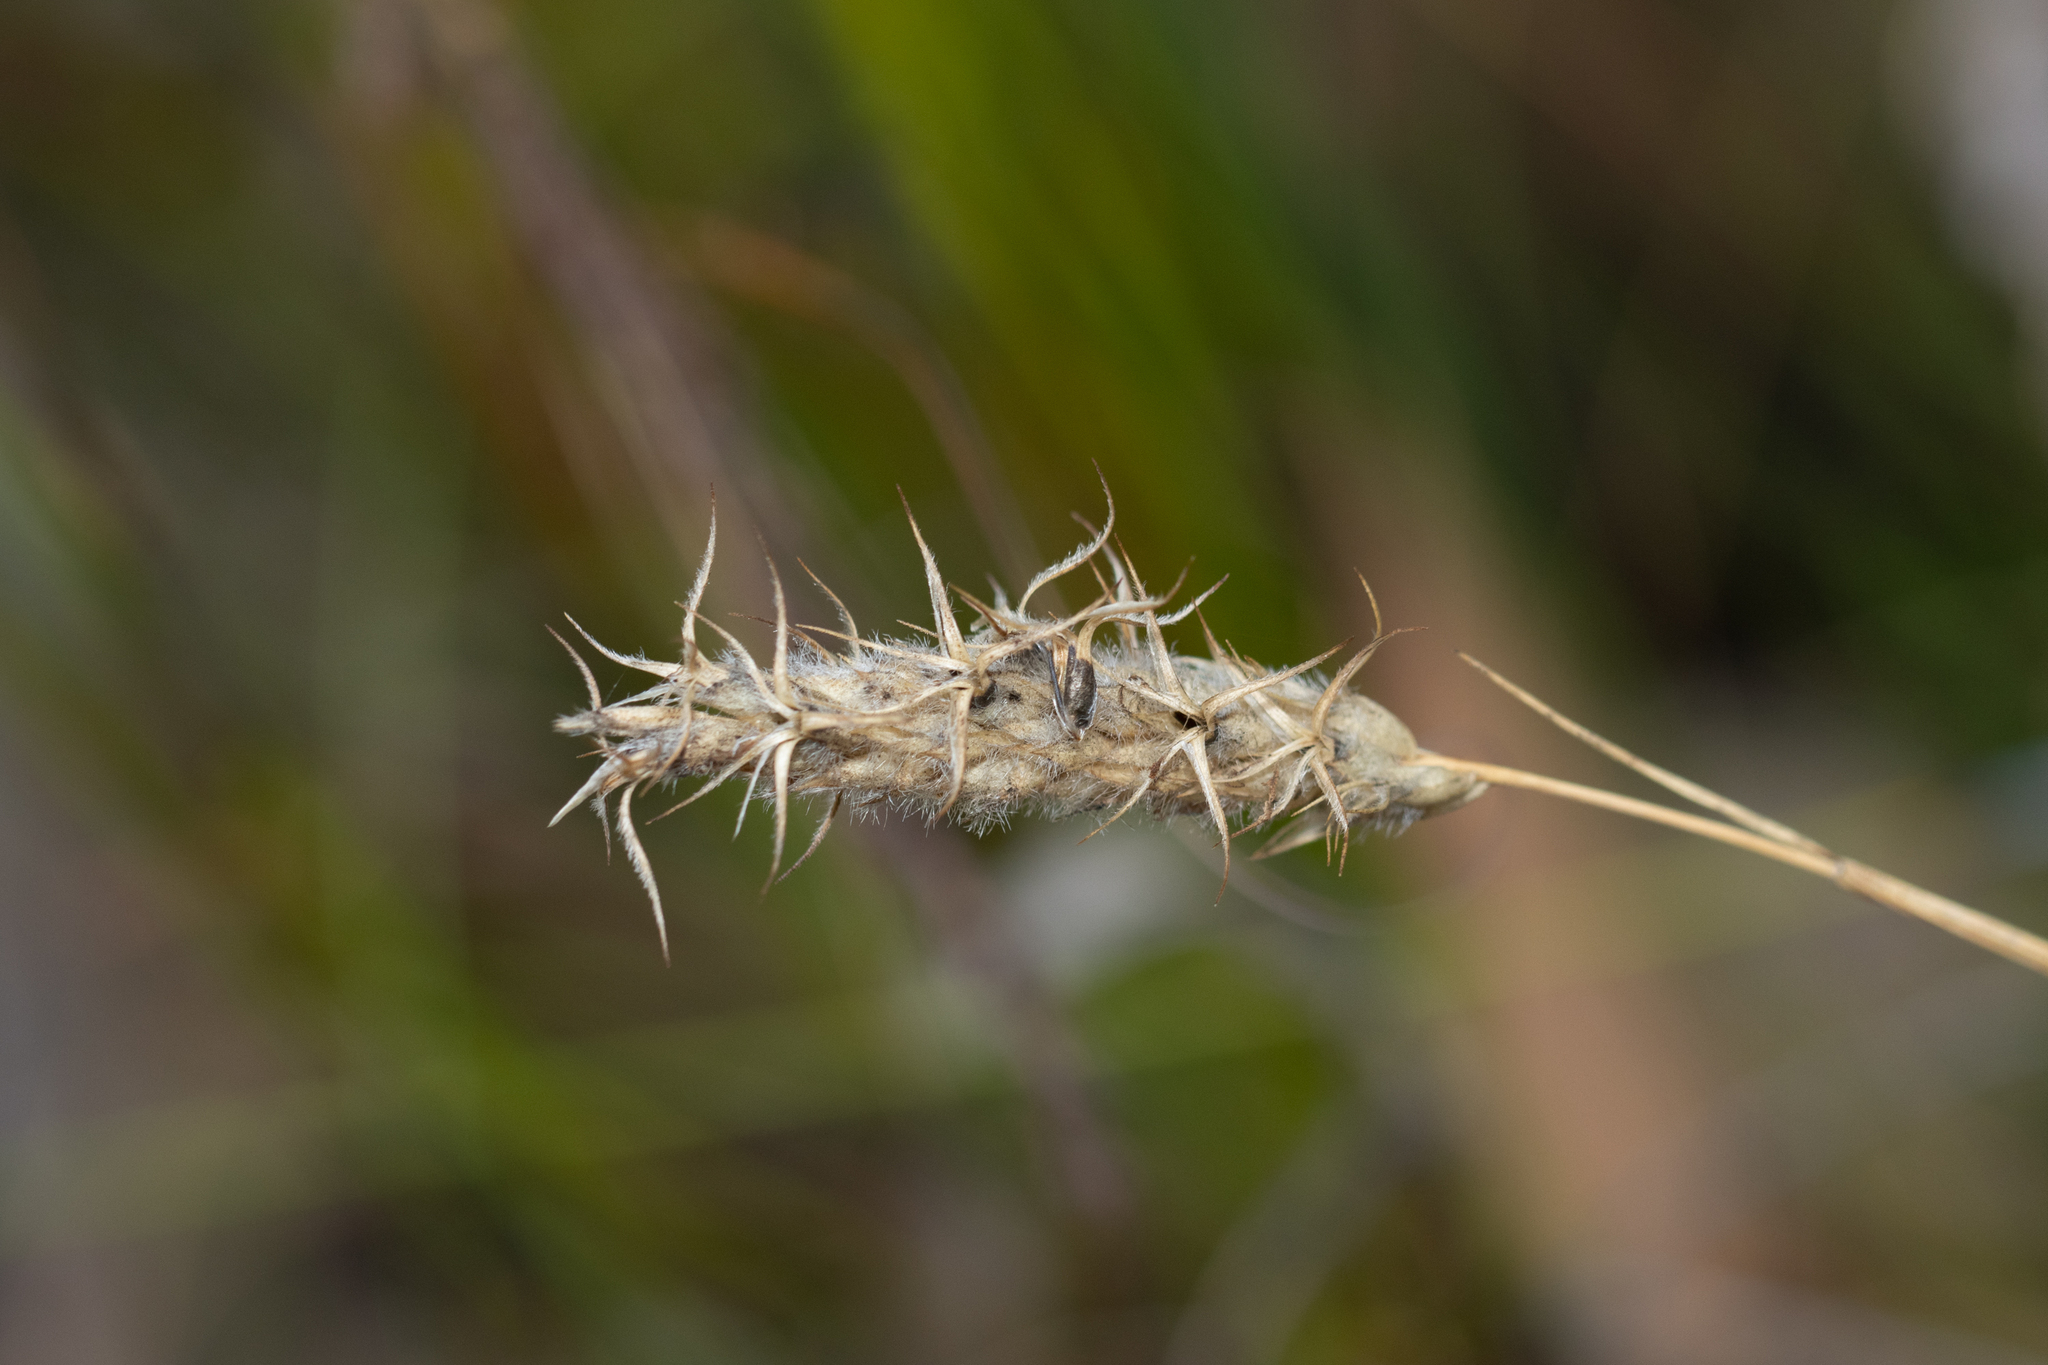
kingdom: Plantae
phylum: Tracheophyta
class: Liliopsida
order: Poales
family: Poaceae
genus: Amphipogon
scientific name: Amphipogon strictus
